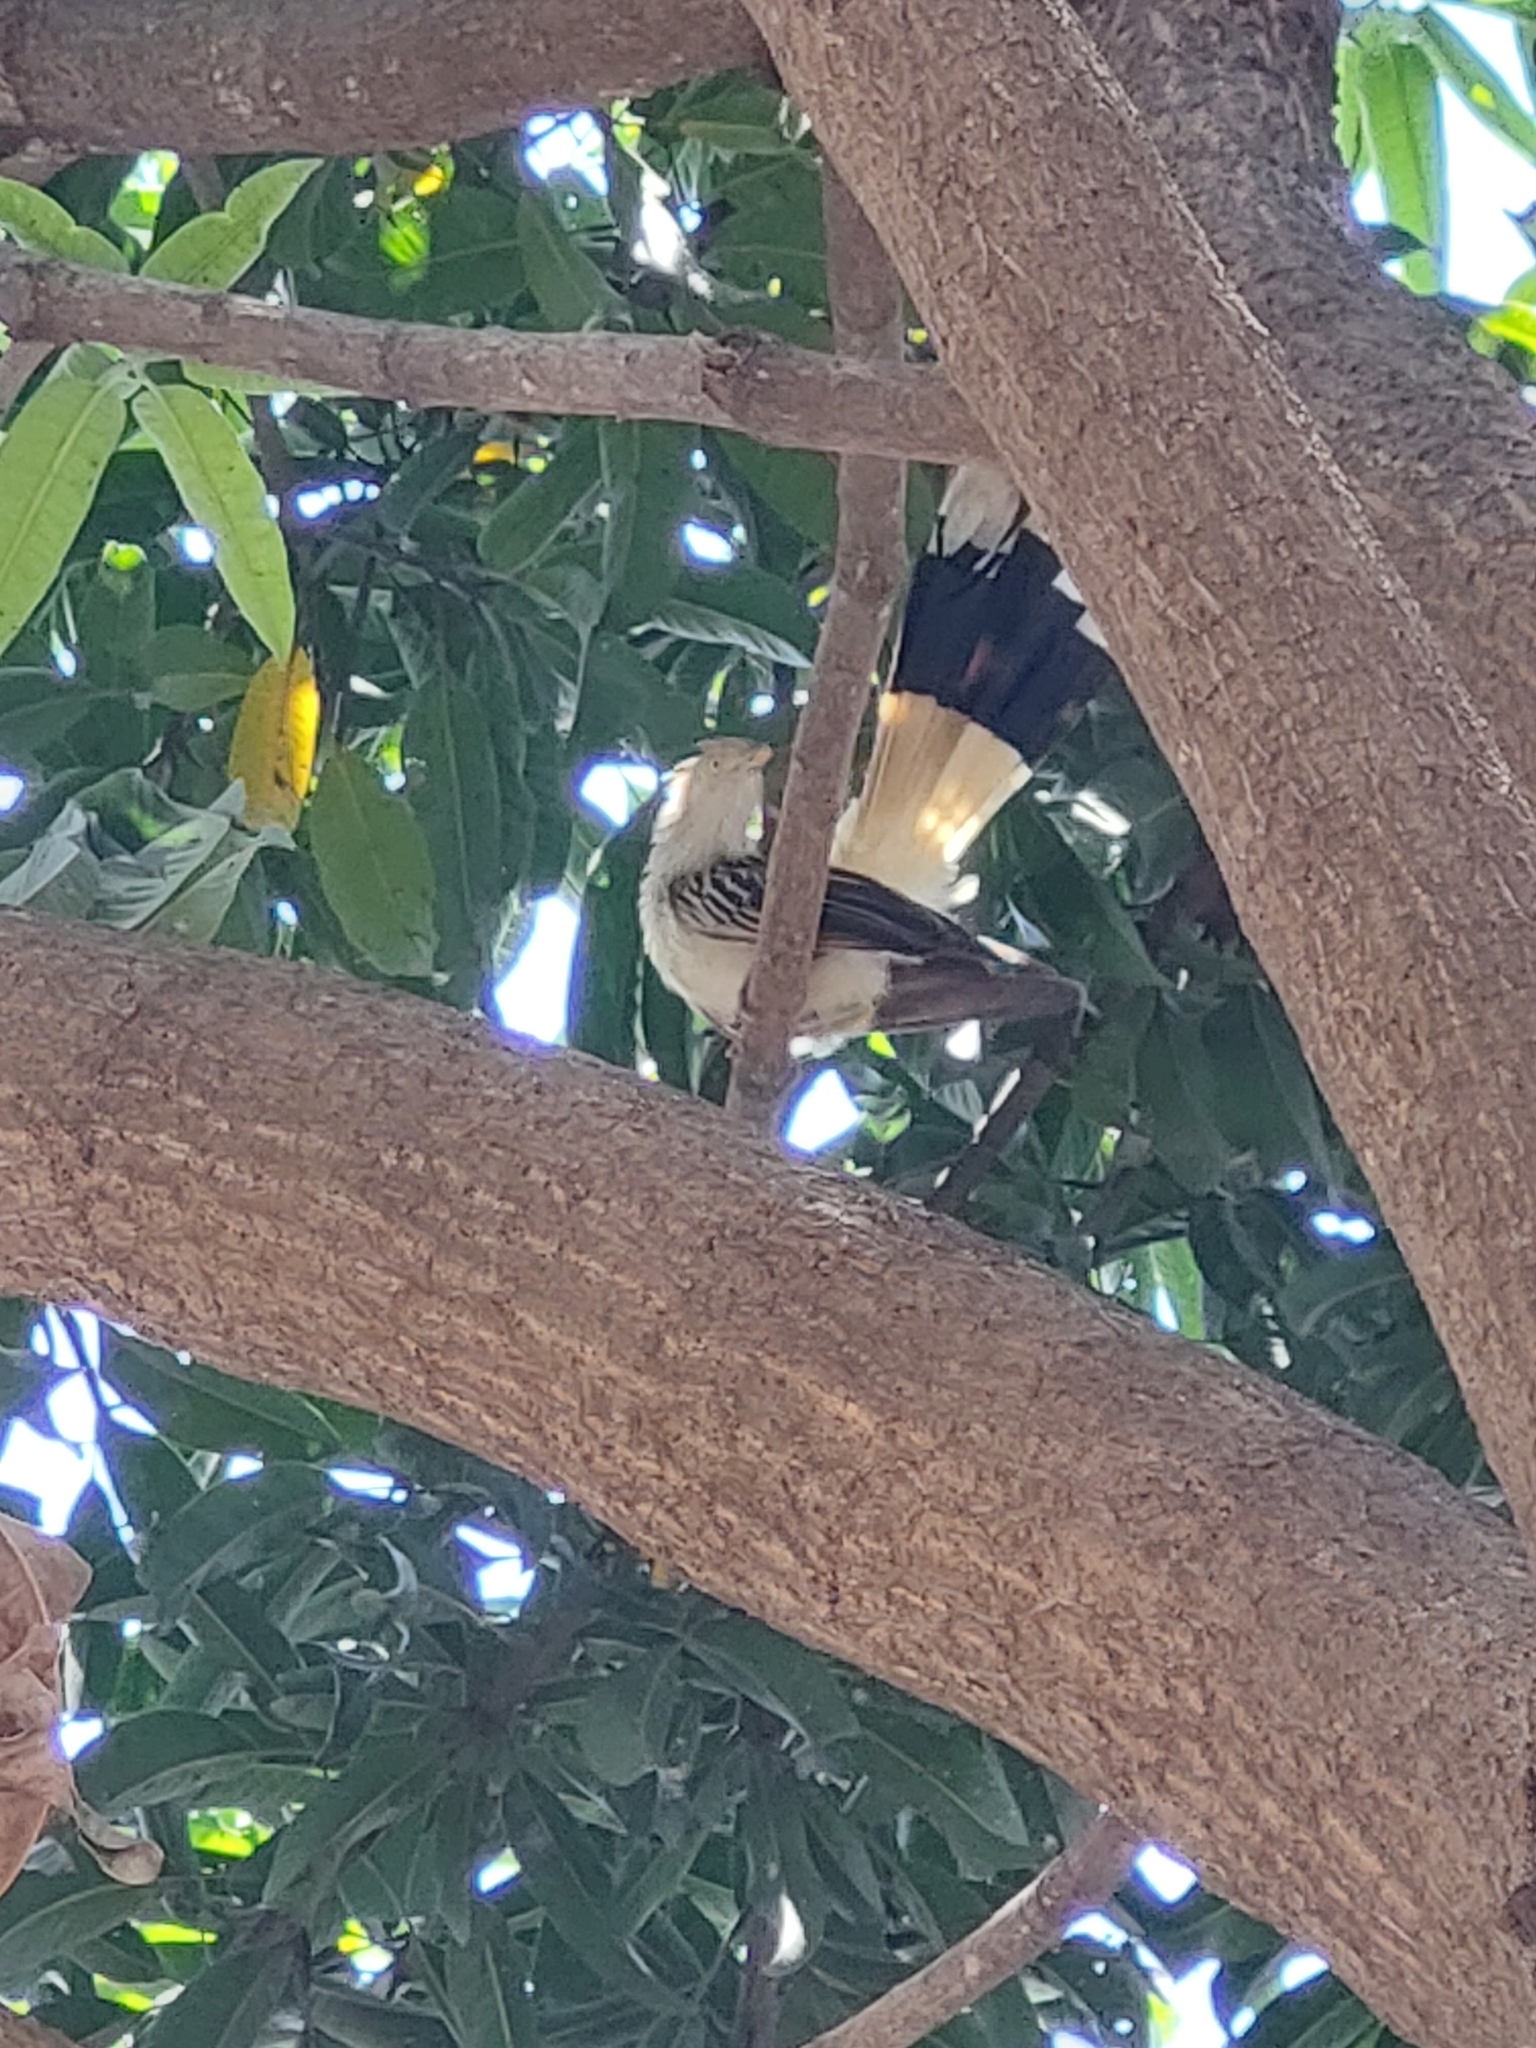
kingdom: Animalia
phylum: Chordata
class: Aves
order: Cuculiformes
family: Cuculidae
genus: Guira
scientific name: Guira guira
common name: Guira cuckoo
